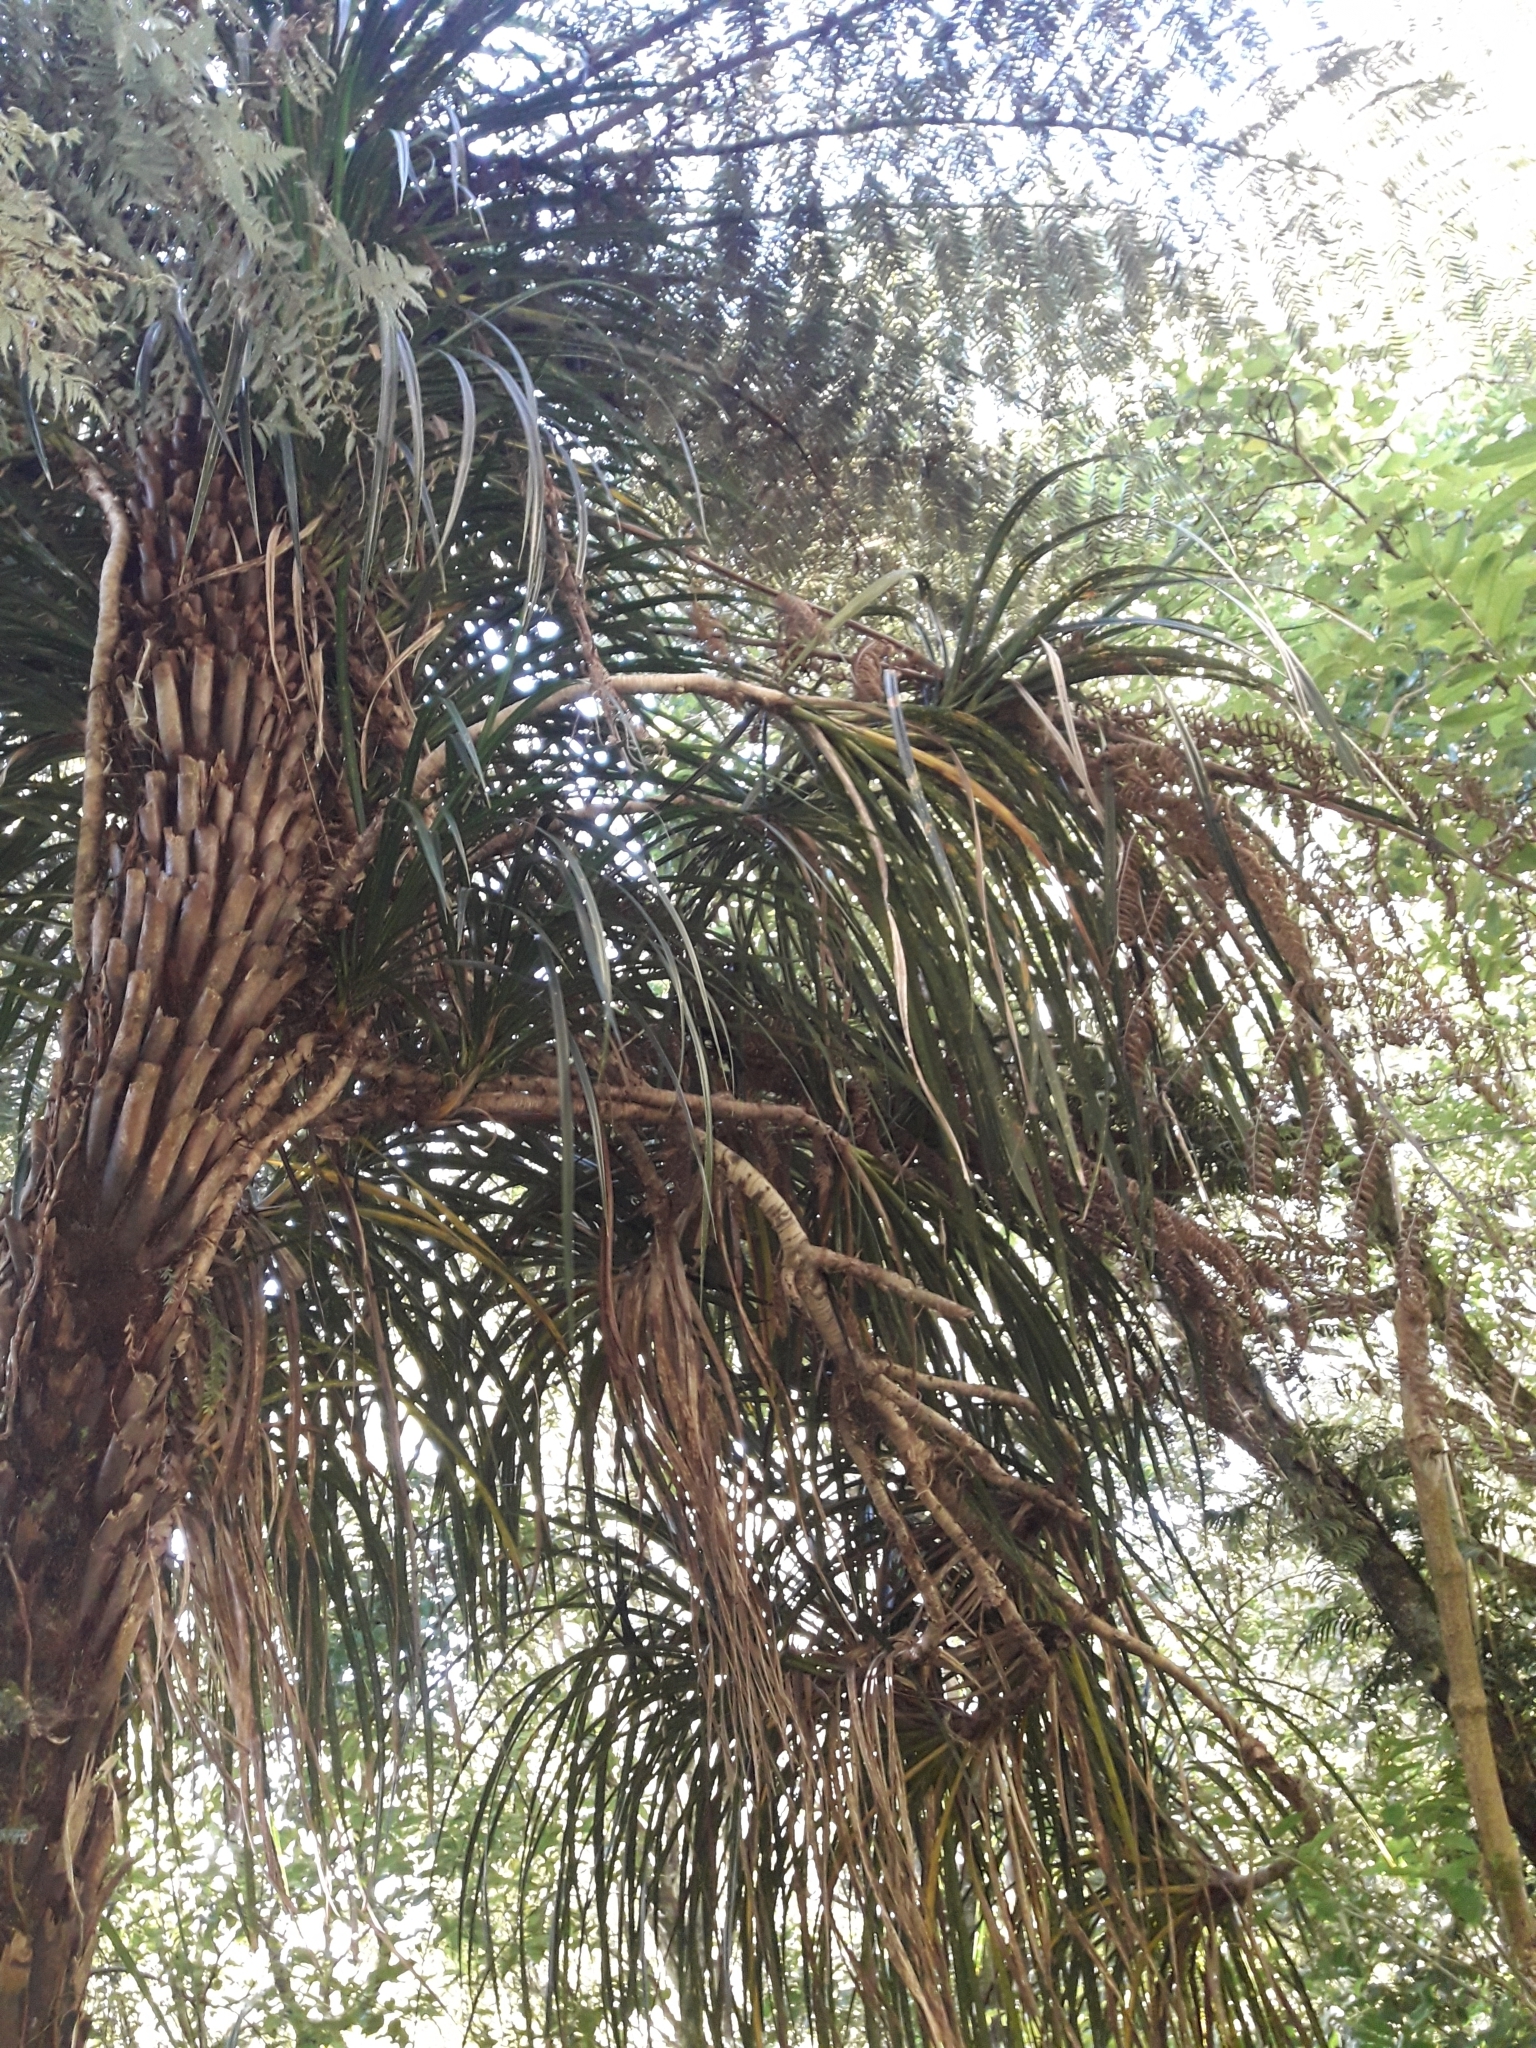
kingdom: Plantae
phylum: Tracheophyta
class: Liliopsida
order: Pandanales
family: Pandanaceae
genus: Freycinetia
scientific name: Freycinetia banksii
